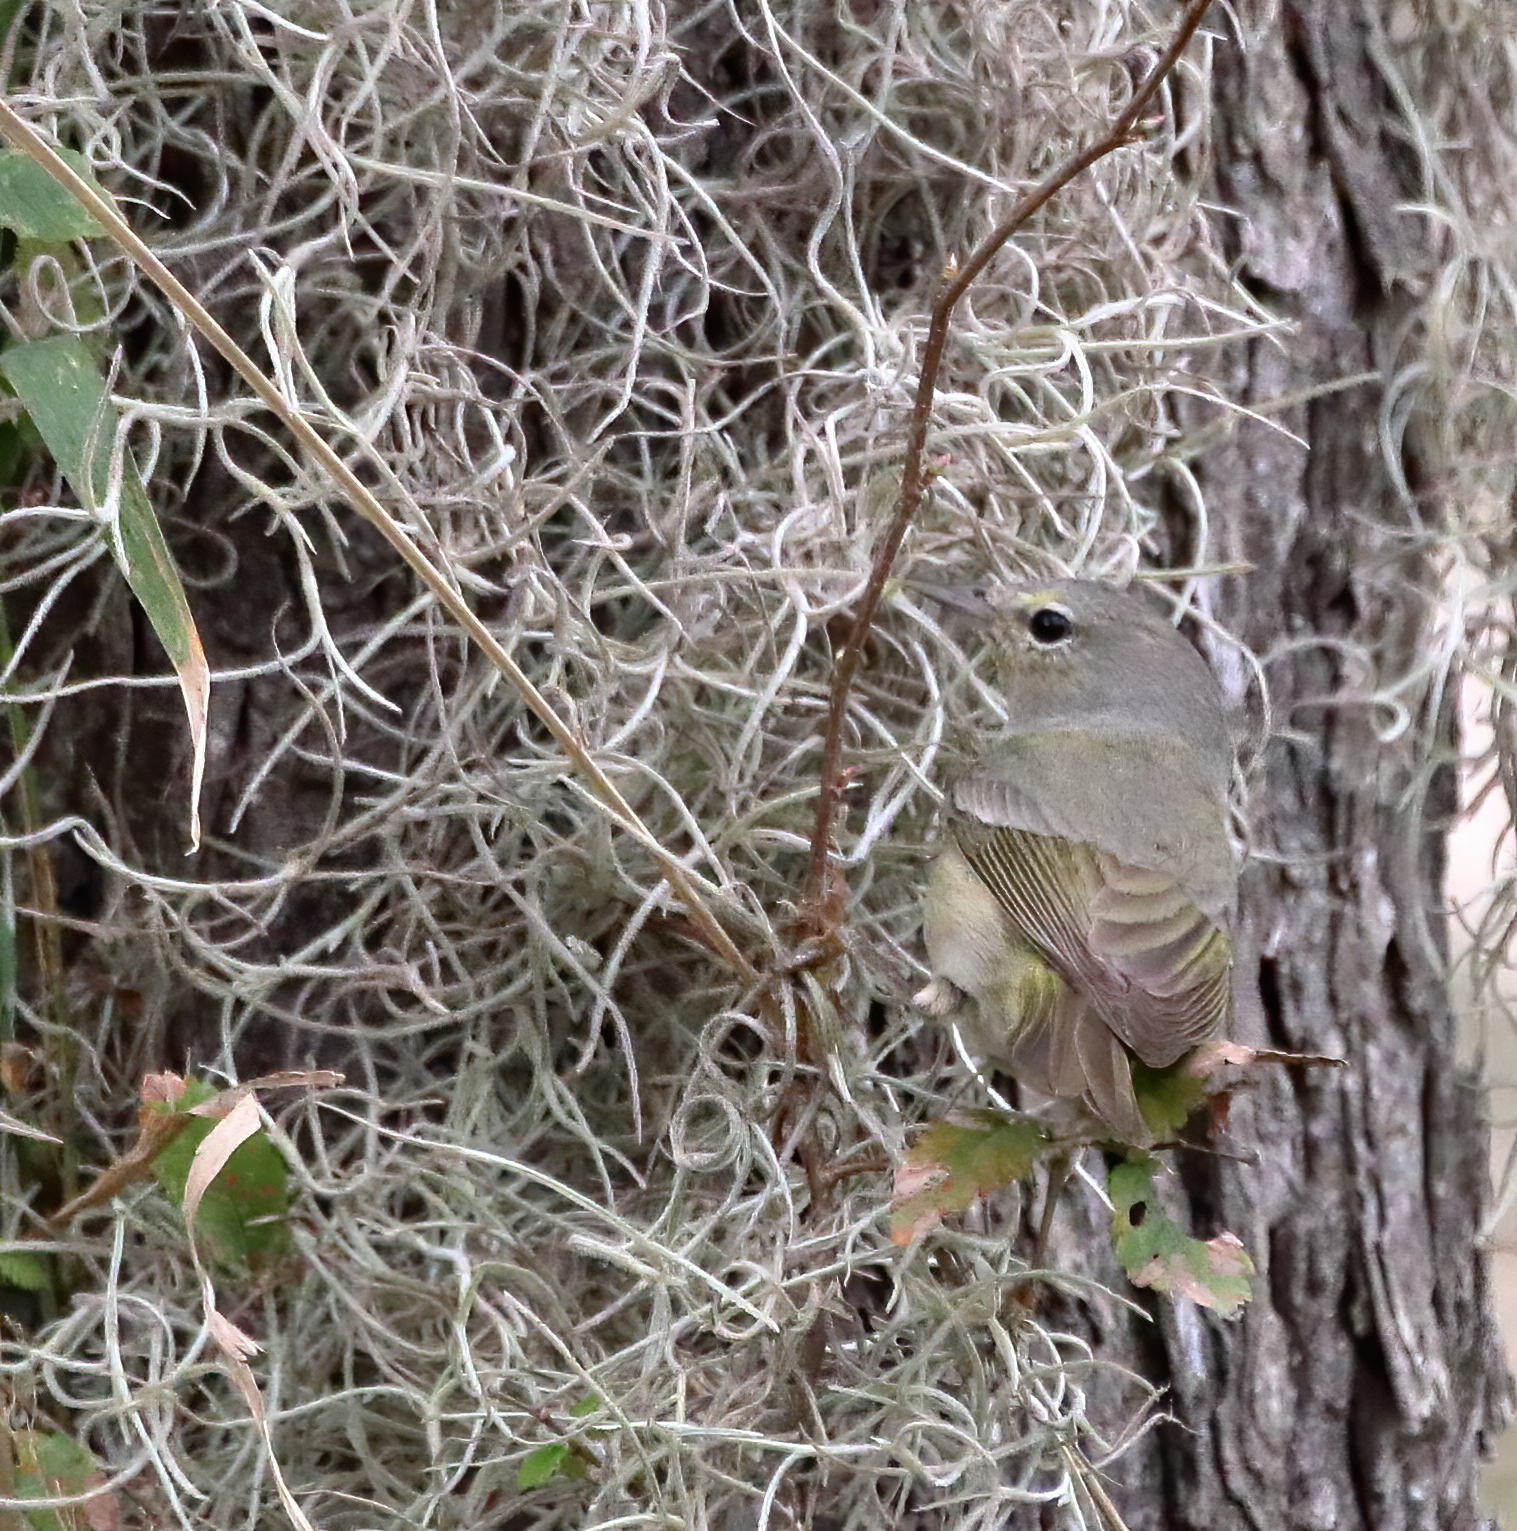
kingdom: Animalia
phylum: Chordata
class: Aves
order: Passeriformes
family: Parulidae
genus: Leiothlypis
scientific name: Leiothlypis celata
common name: Orange-crowned warbler
